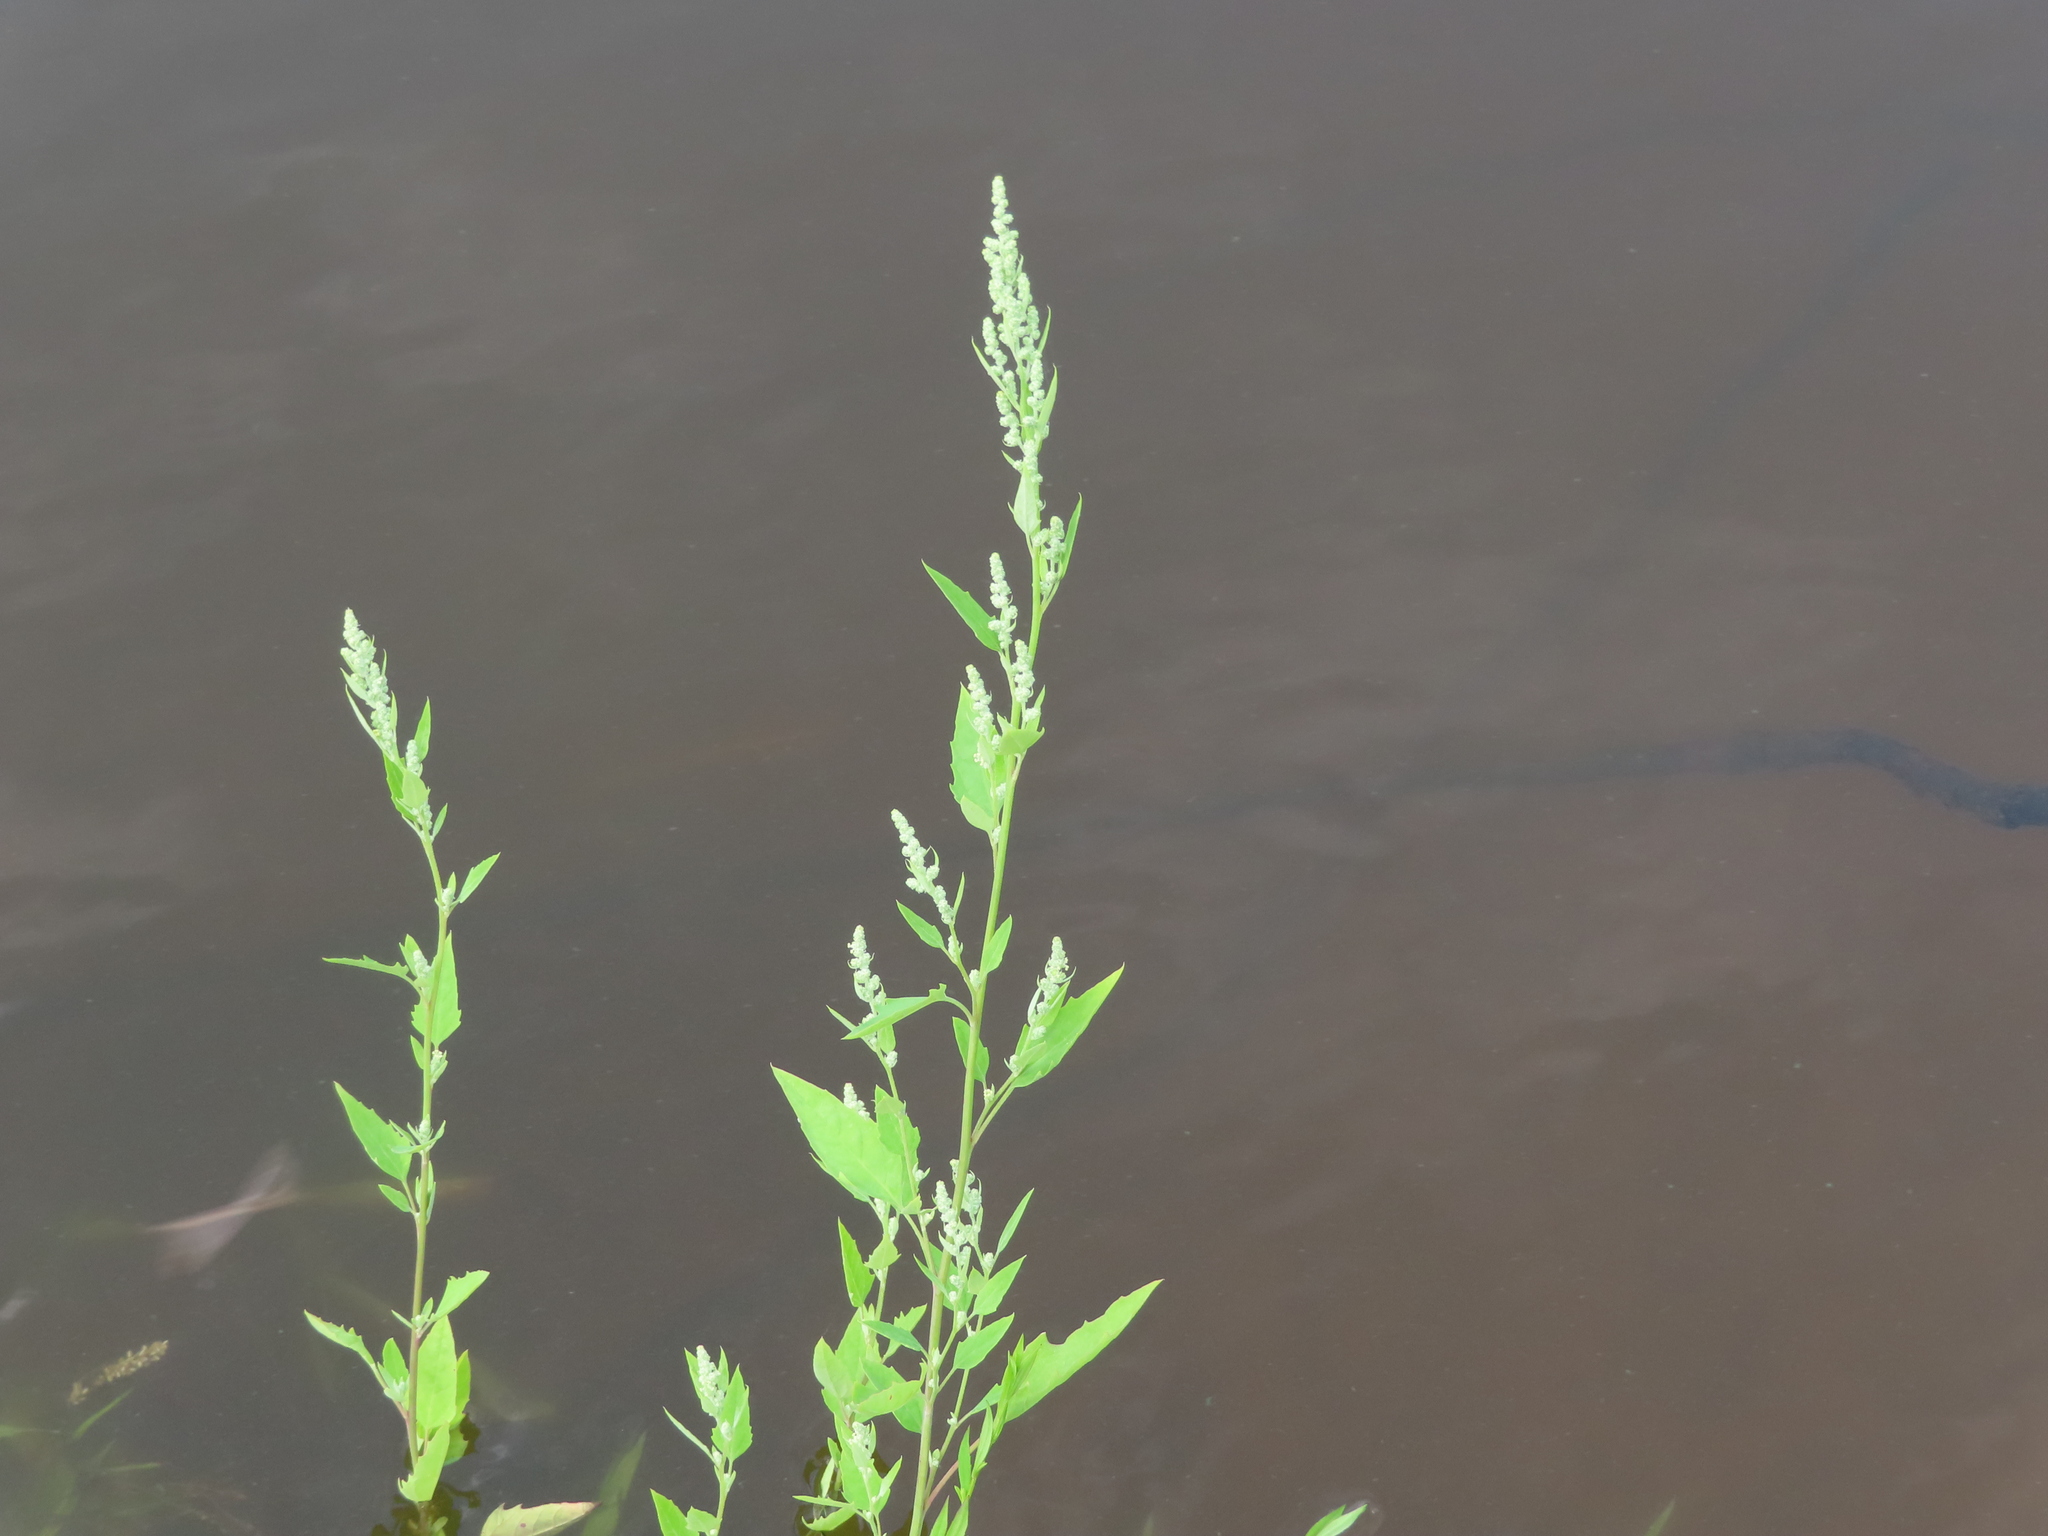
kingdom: Plantae
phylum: Tracheophyta
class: Magnoliopsida
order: Caryophyllales
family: Amaranthaceae
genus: Chenopodium
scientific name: Chenopodium album
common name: Fat-hen
